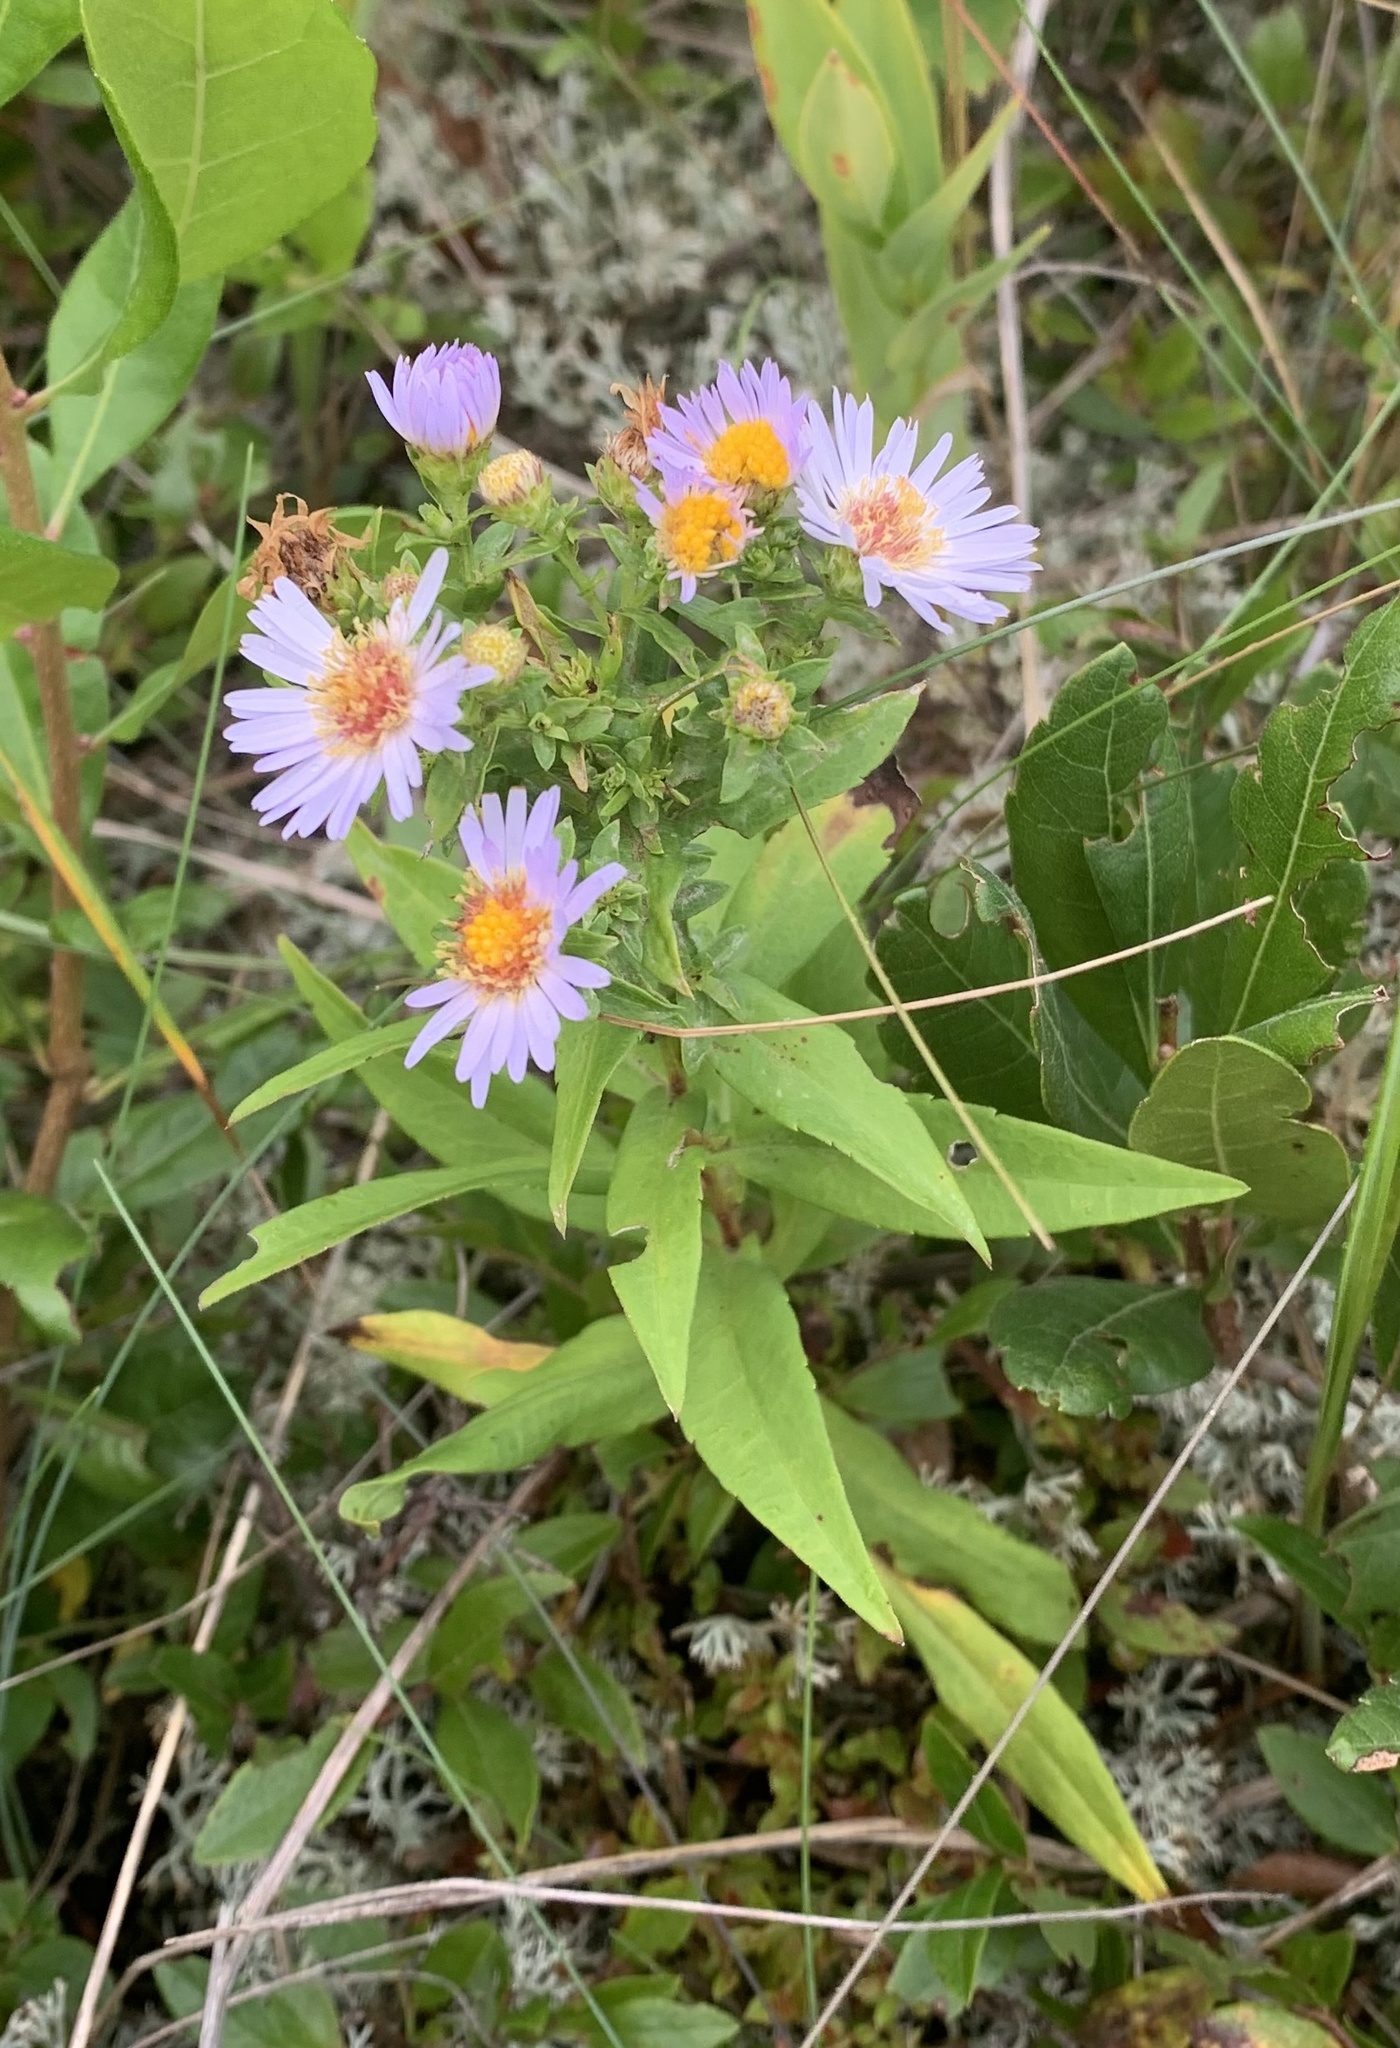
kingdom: Plantae
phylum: Tracheophyta
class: Magnoliopsida
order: Asterales
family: Asteraceae
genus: Symphyotrichum
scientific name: Symphyotrichum novi-belgii
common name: Michaelmas daisy
